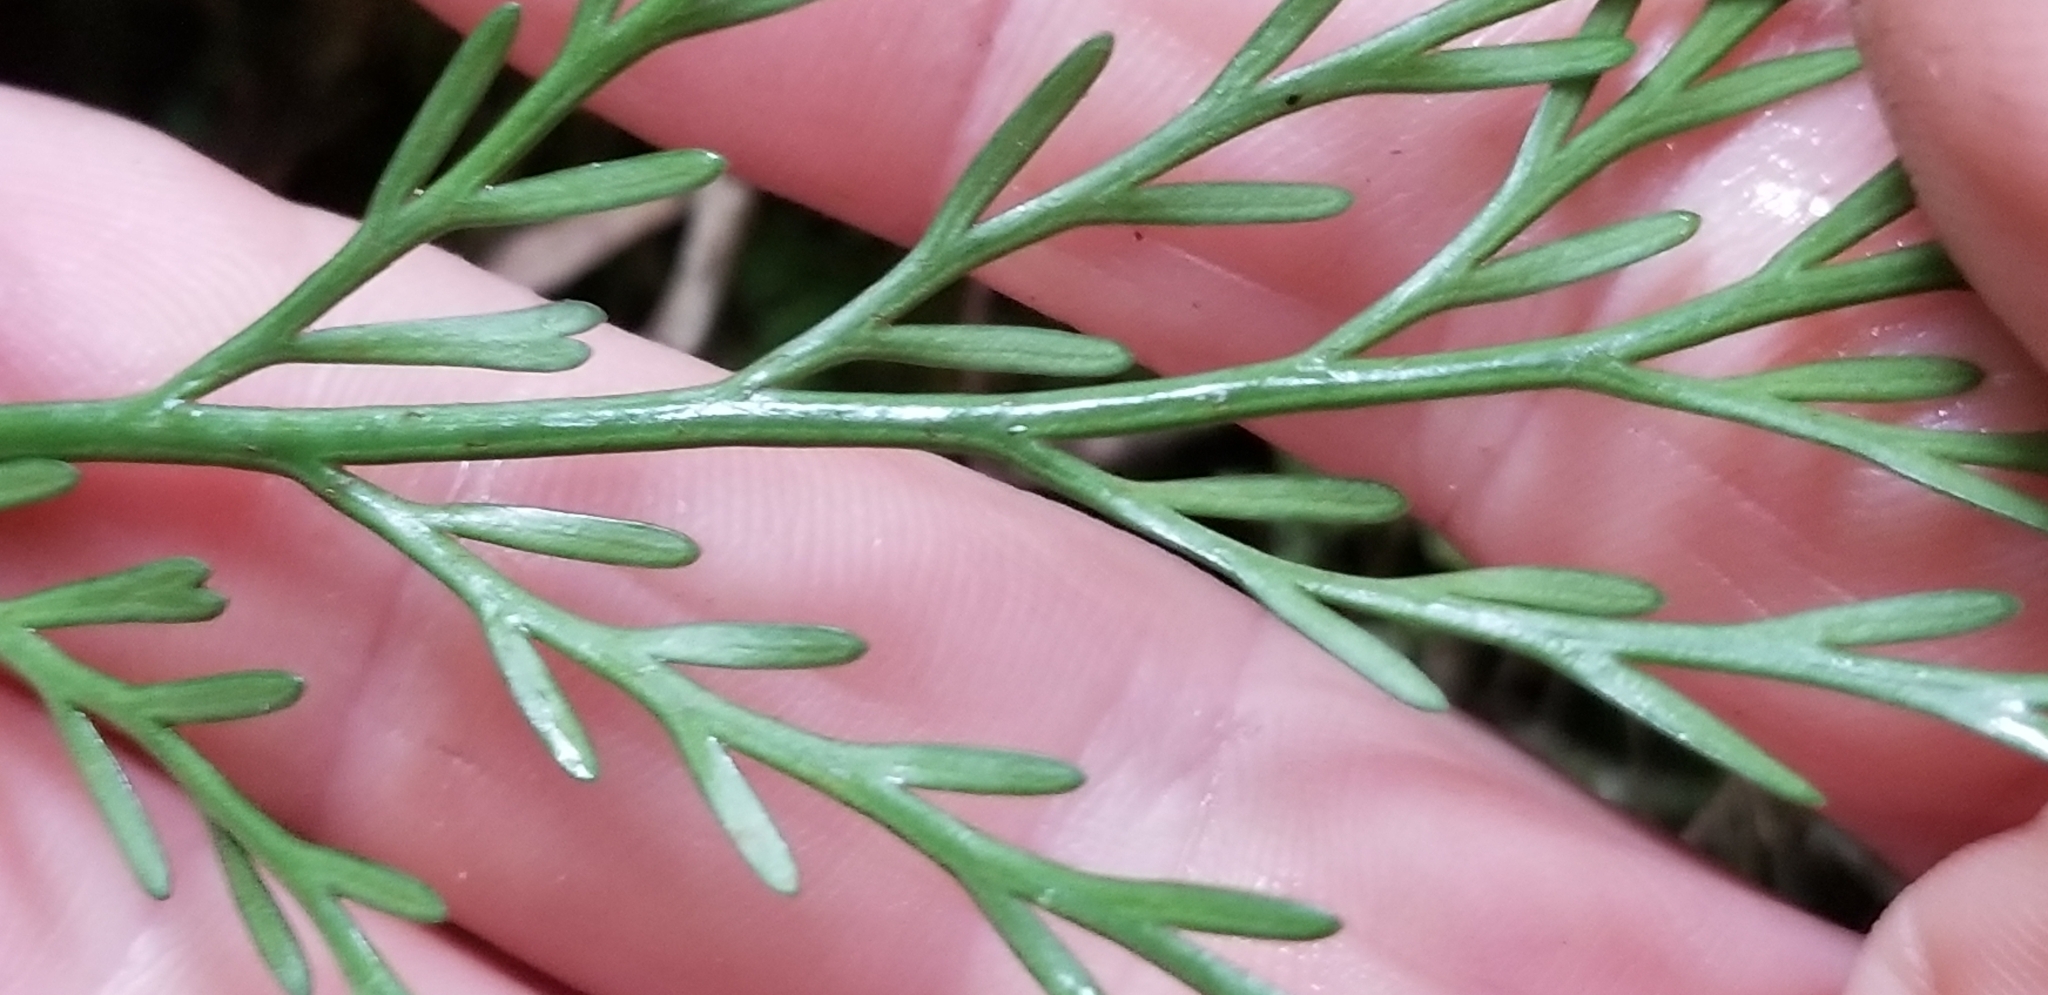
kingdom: Plantae
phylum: Tracheophyta
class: Polypodiopsida
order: Polypodiales
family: Aspleniaceae
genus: Asplenium
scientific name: Asplenium flaccidum
